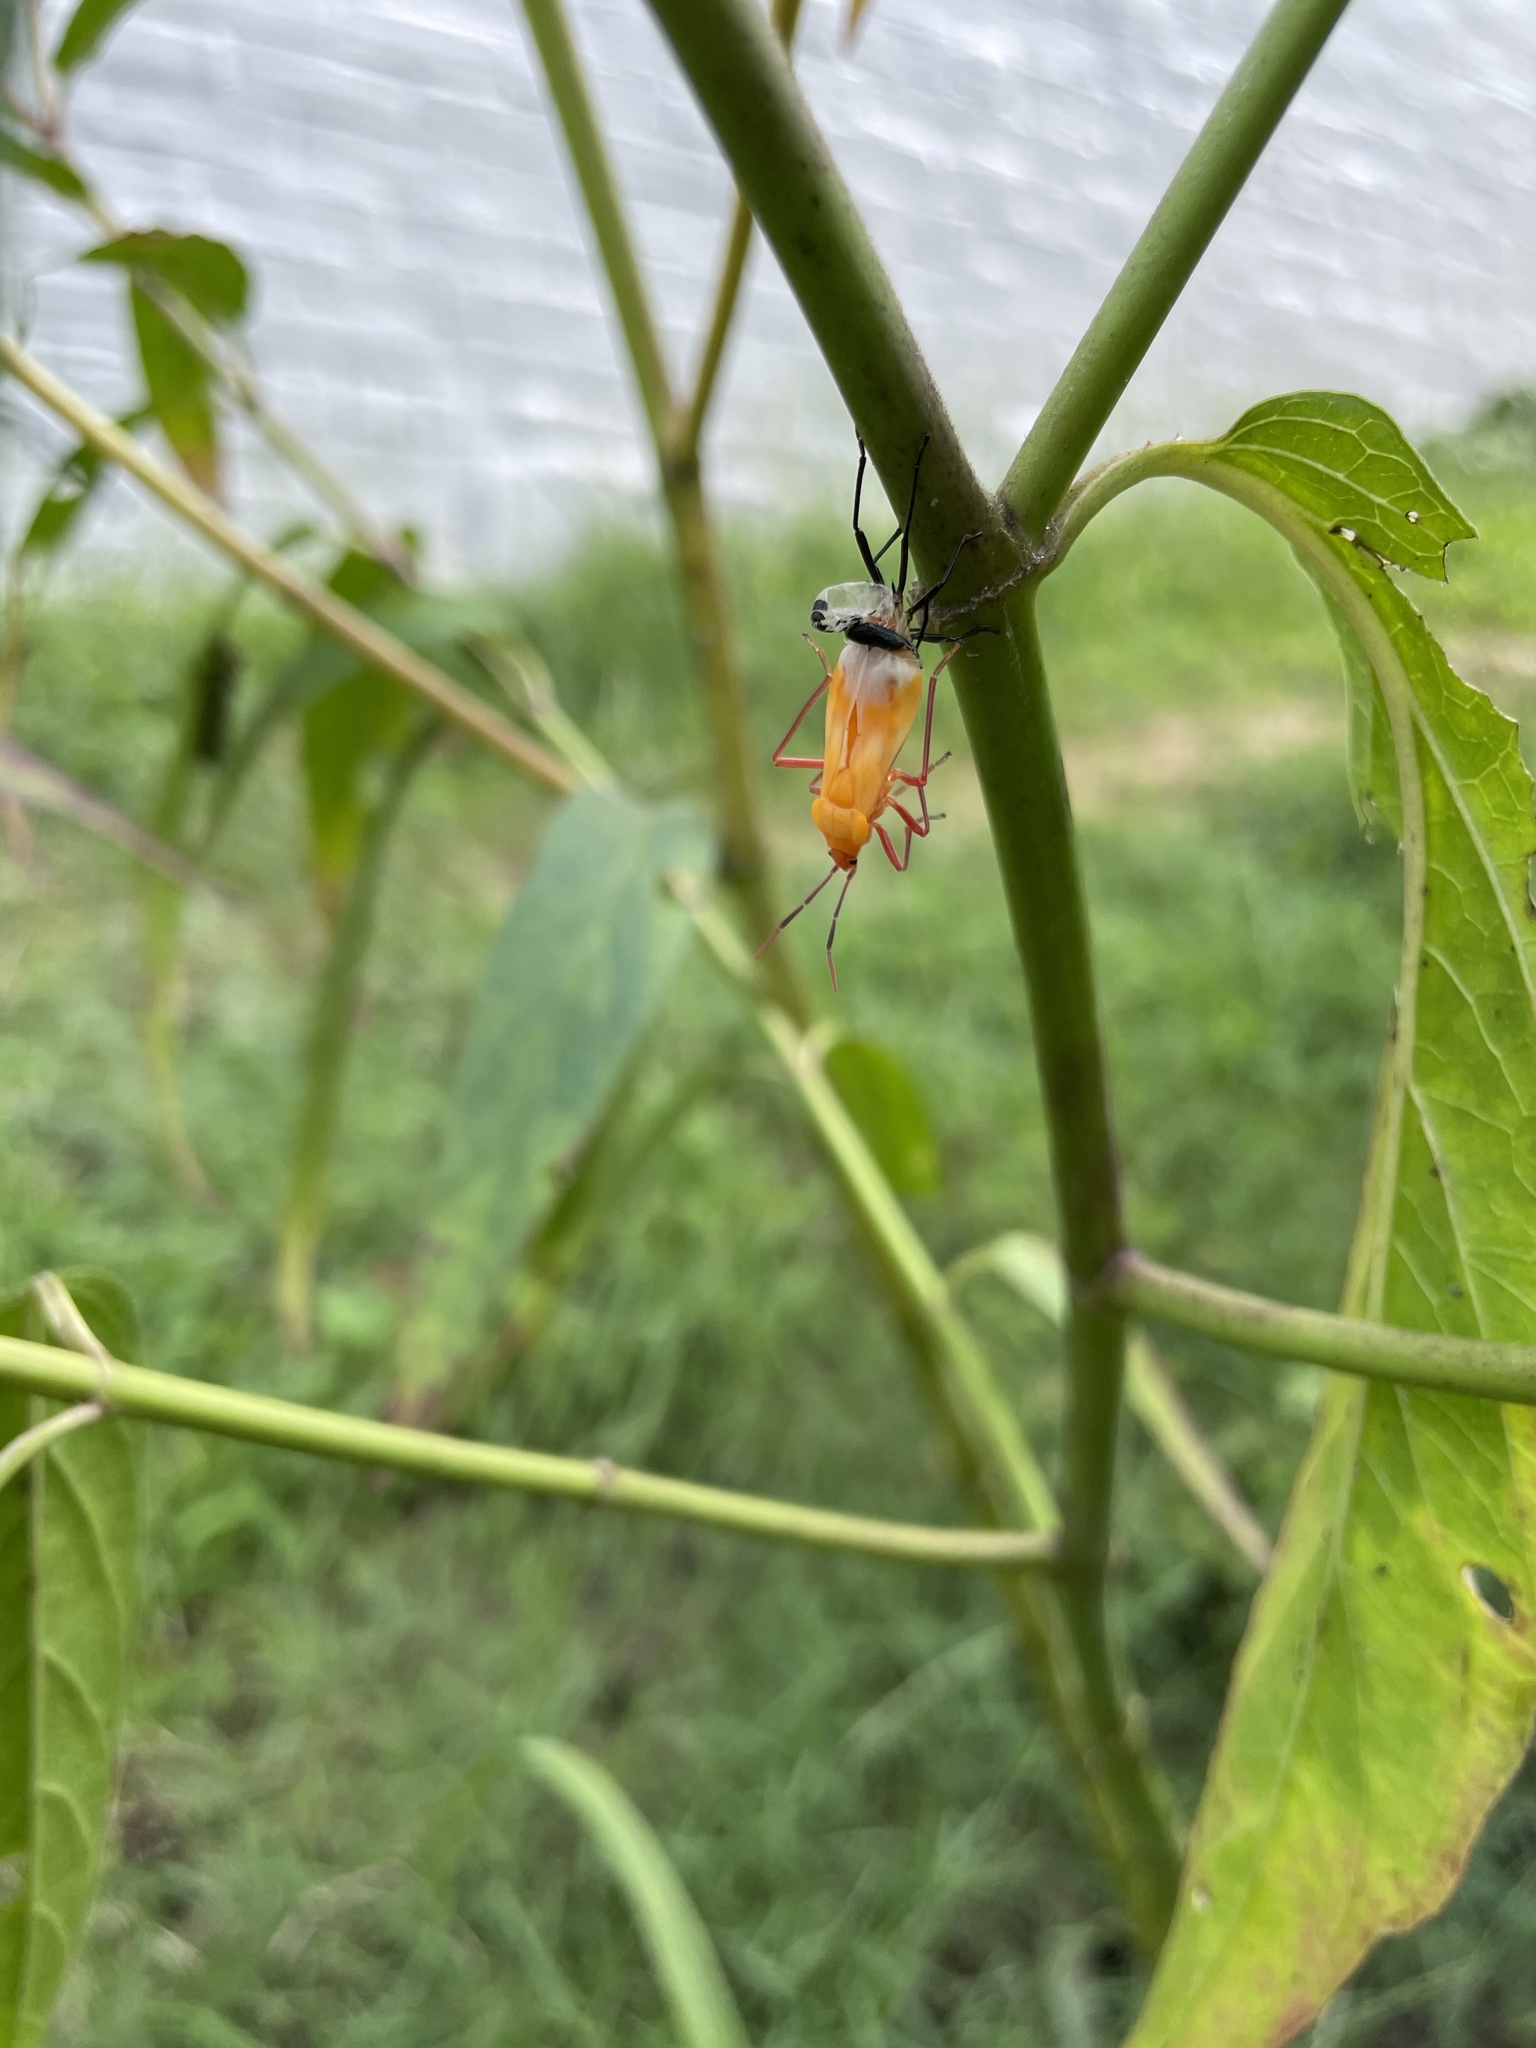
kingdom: Animalia
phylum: Arthropoda
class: Insecta
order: Hemiptera
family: Lygaeidae
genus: Oncopeltus
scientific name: Oncopeltus fasciatus
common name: Large milkweed bug
